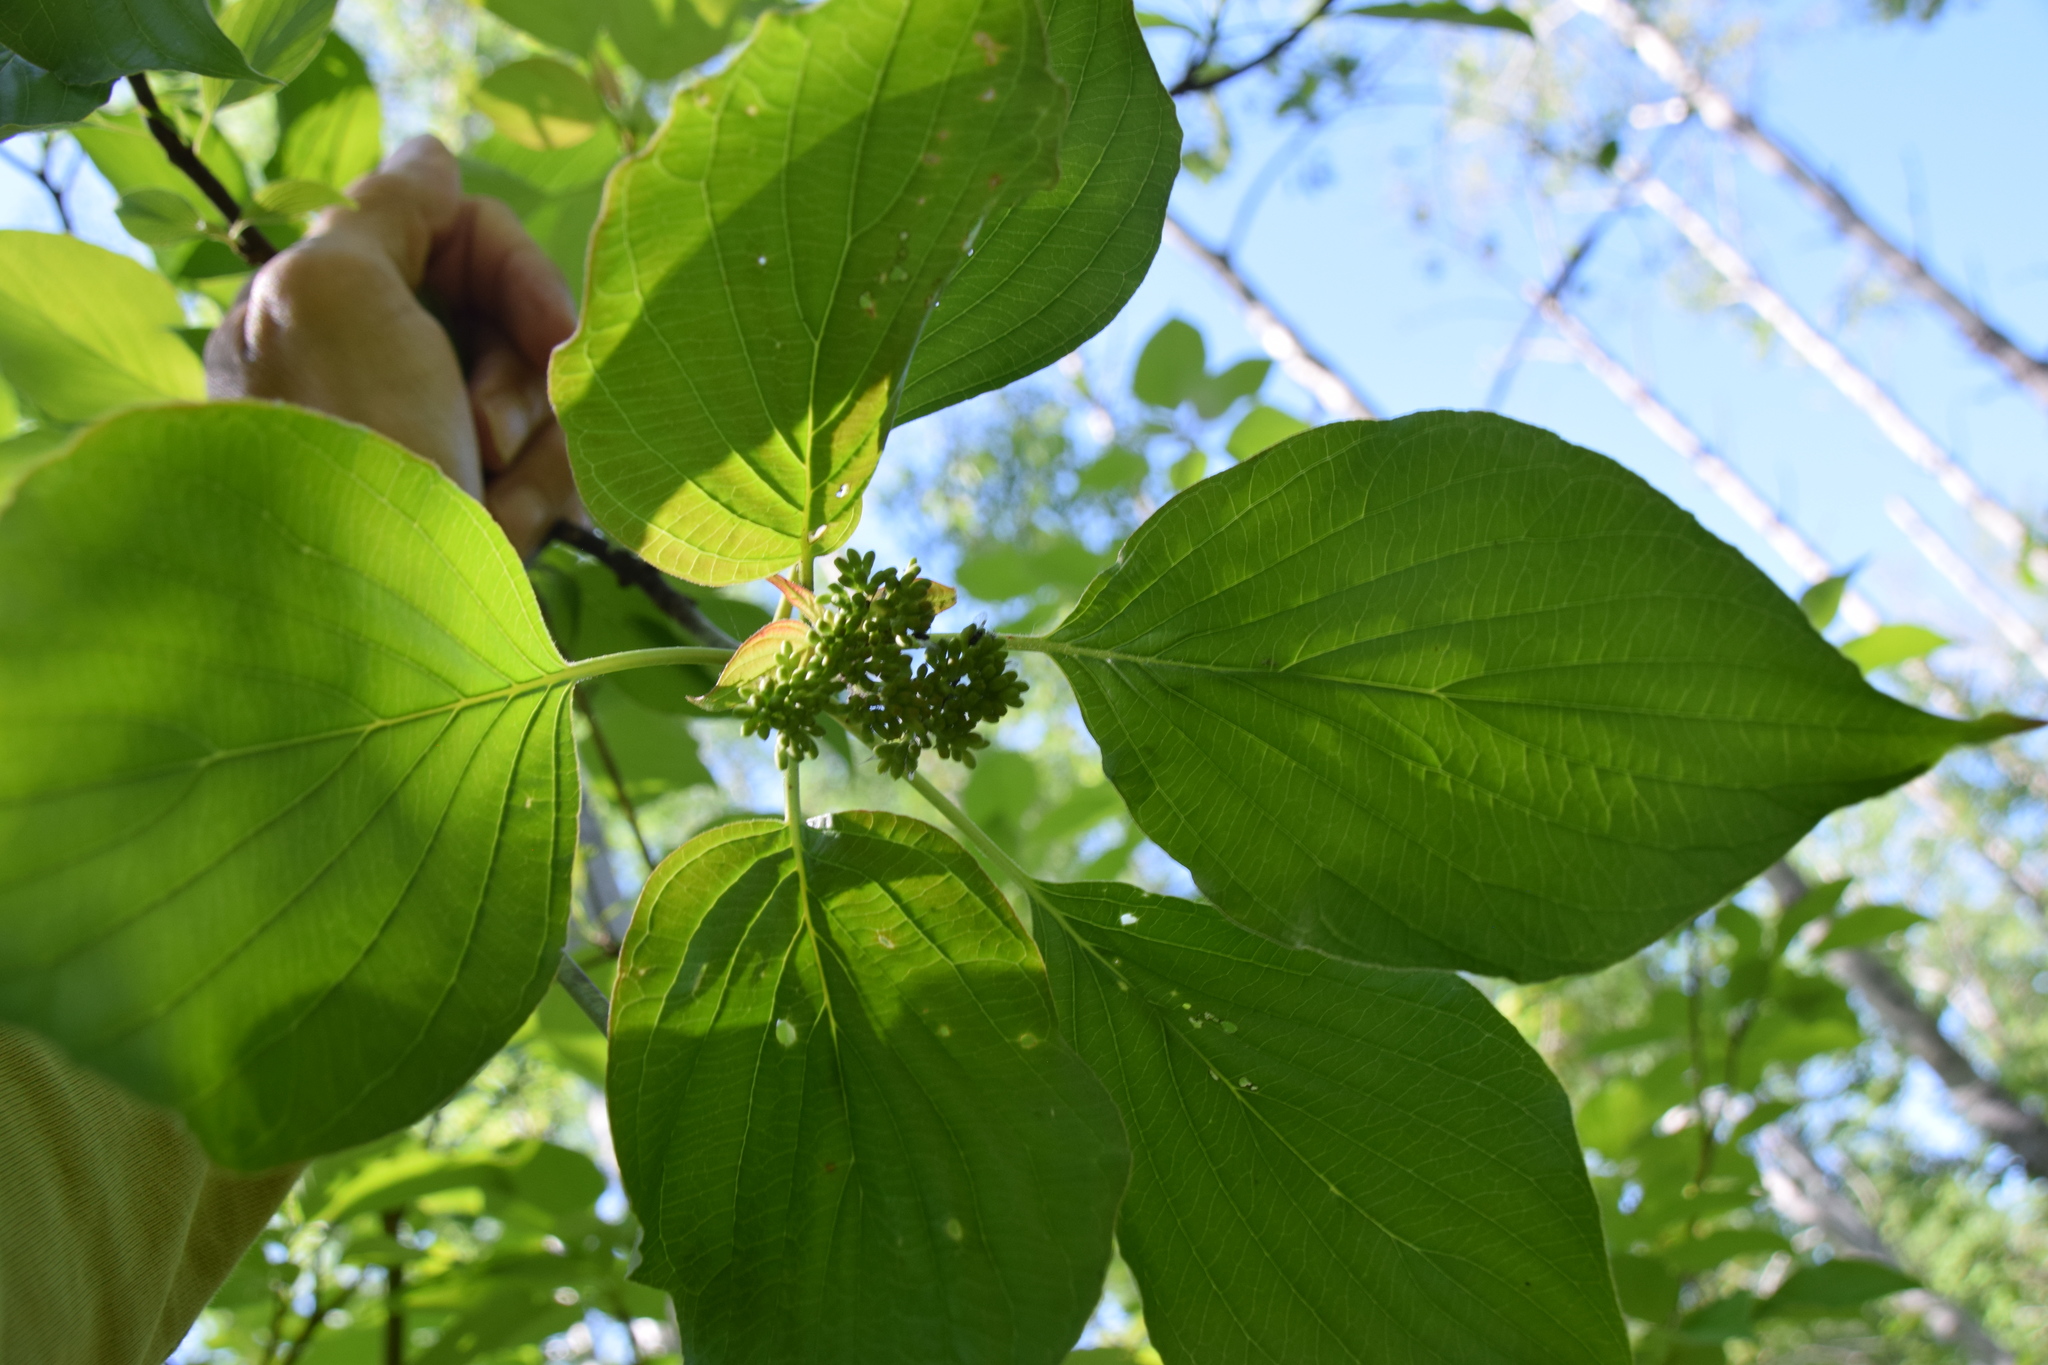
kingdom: Plantae
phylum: Tracheophyta
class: Magnoliopsida
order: Cornales
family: Cornaceae
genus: Cornus
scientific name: Cornus alternifolia
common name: Pagoda dogwood
